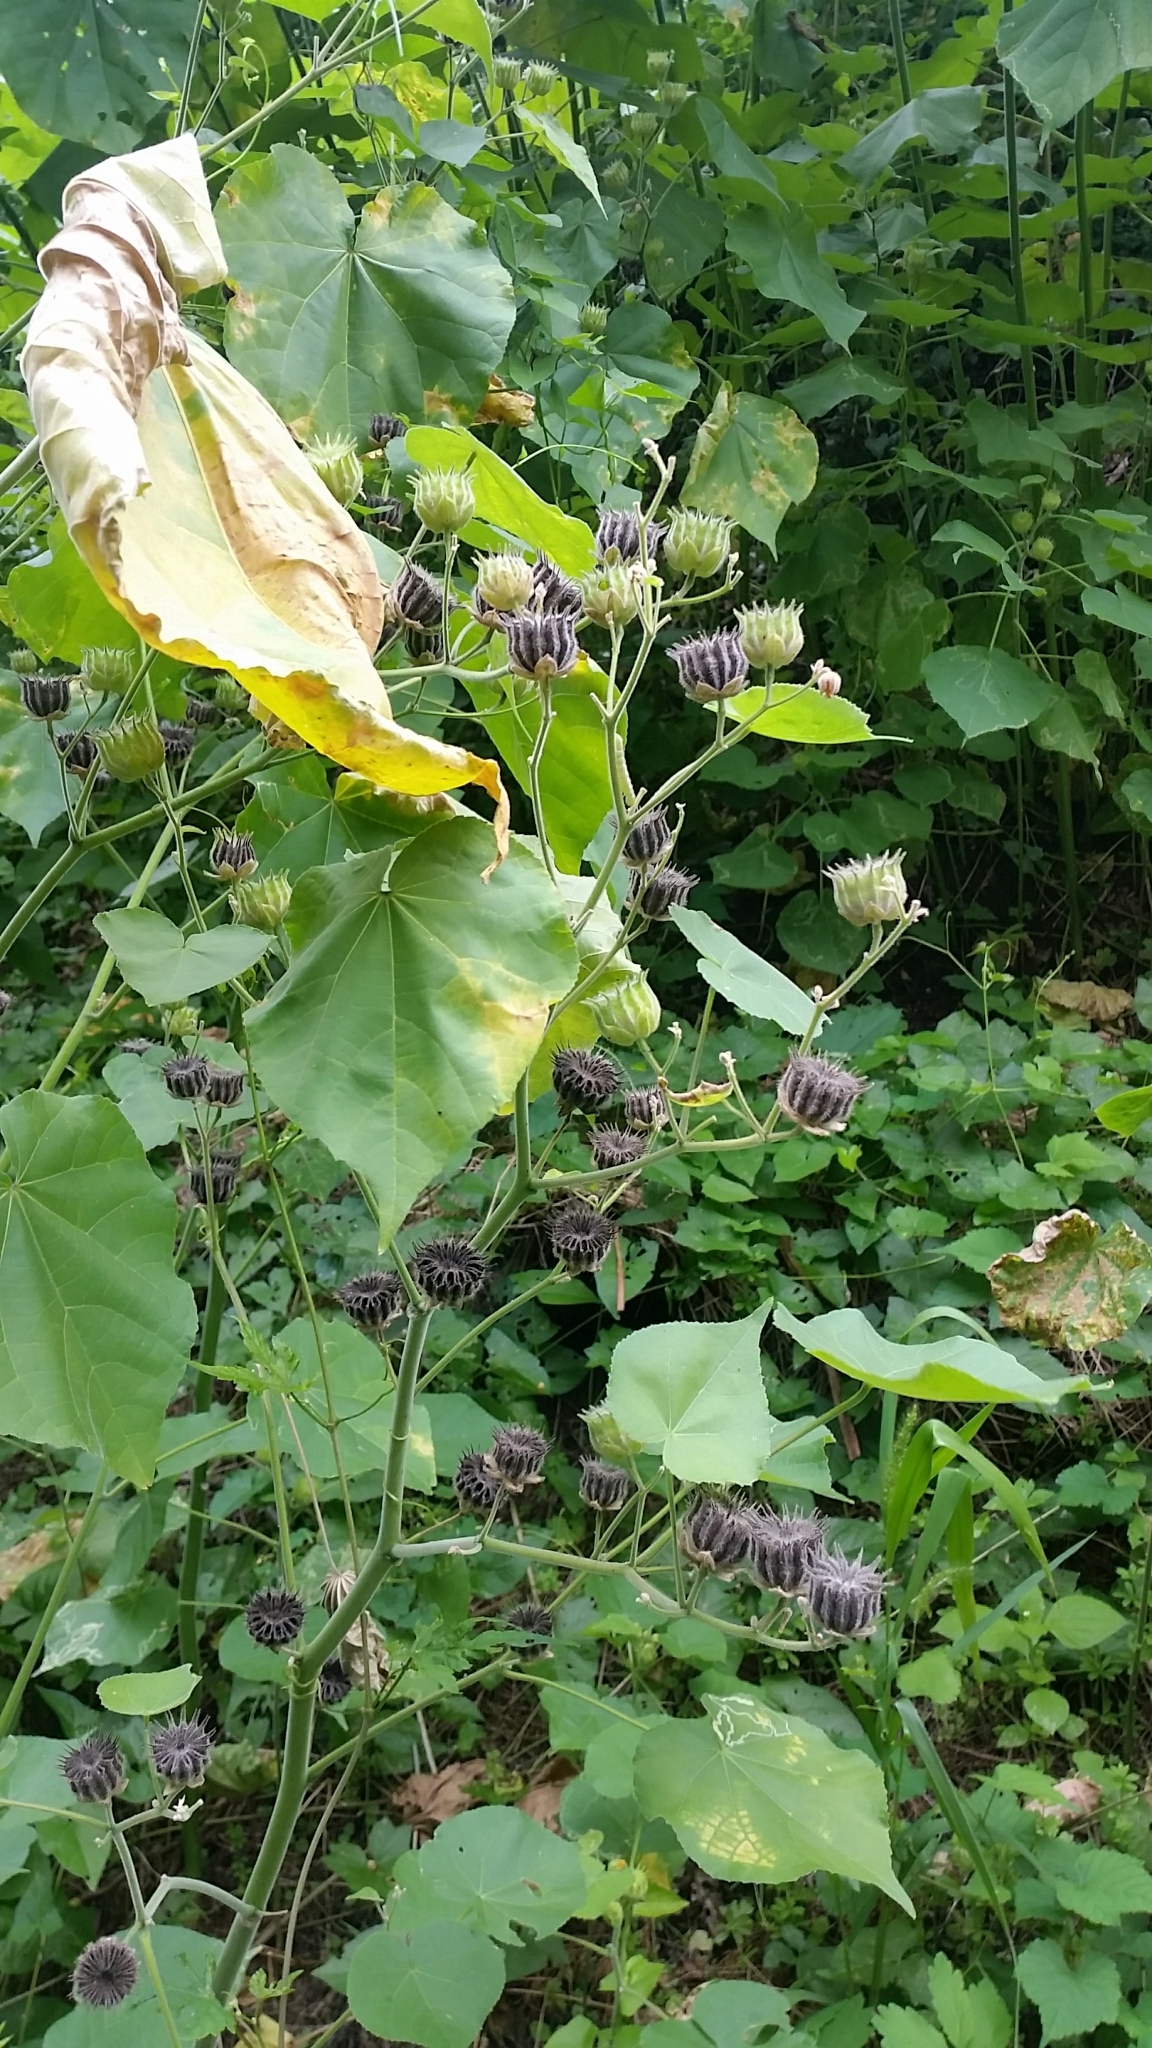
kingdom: Plantae
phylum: Tracheophyta
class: Magnoliopsida
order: Malvales
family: Malvaceae
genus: Abutilon
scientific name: Abutilon theophrasti
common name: Velvetleaf
